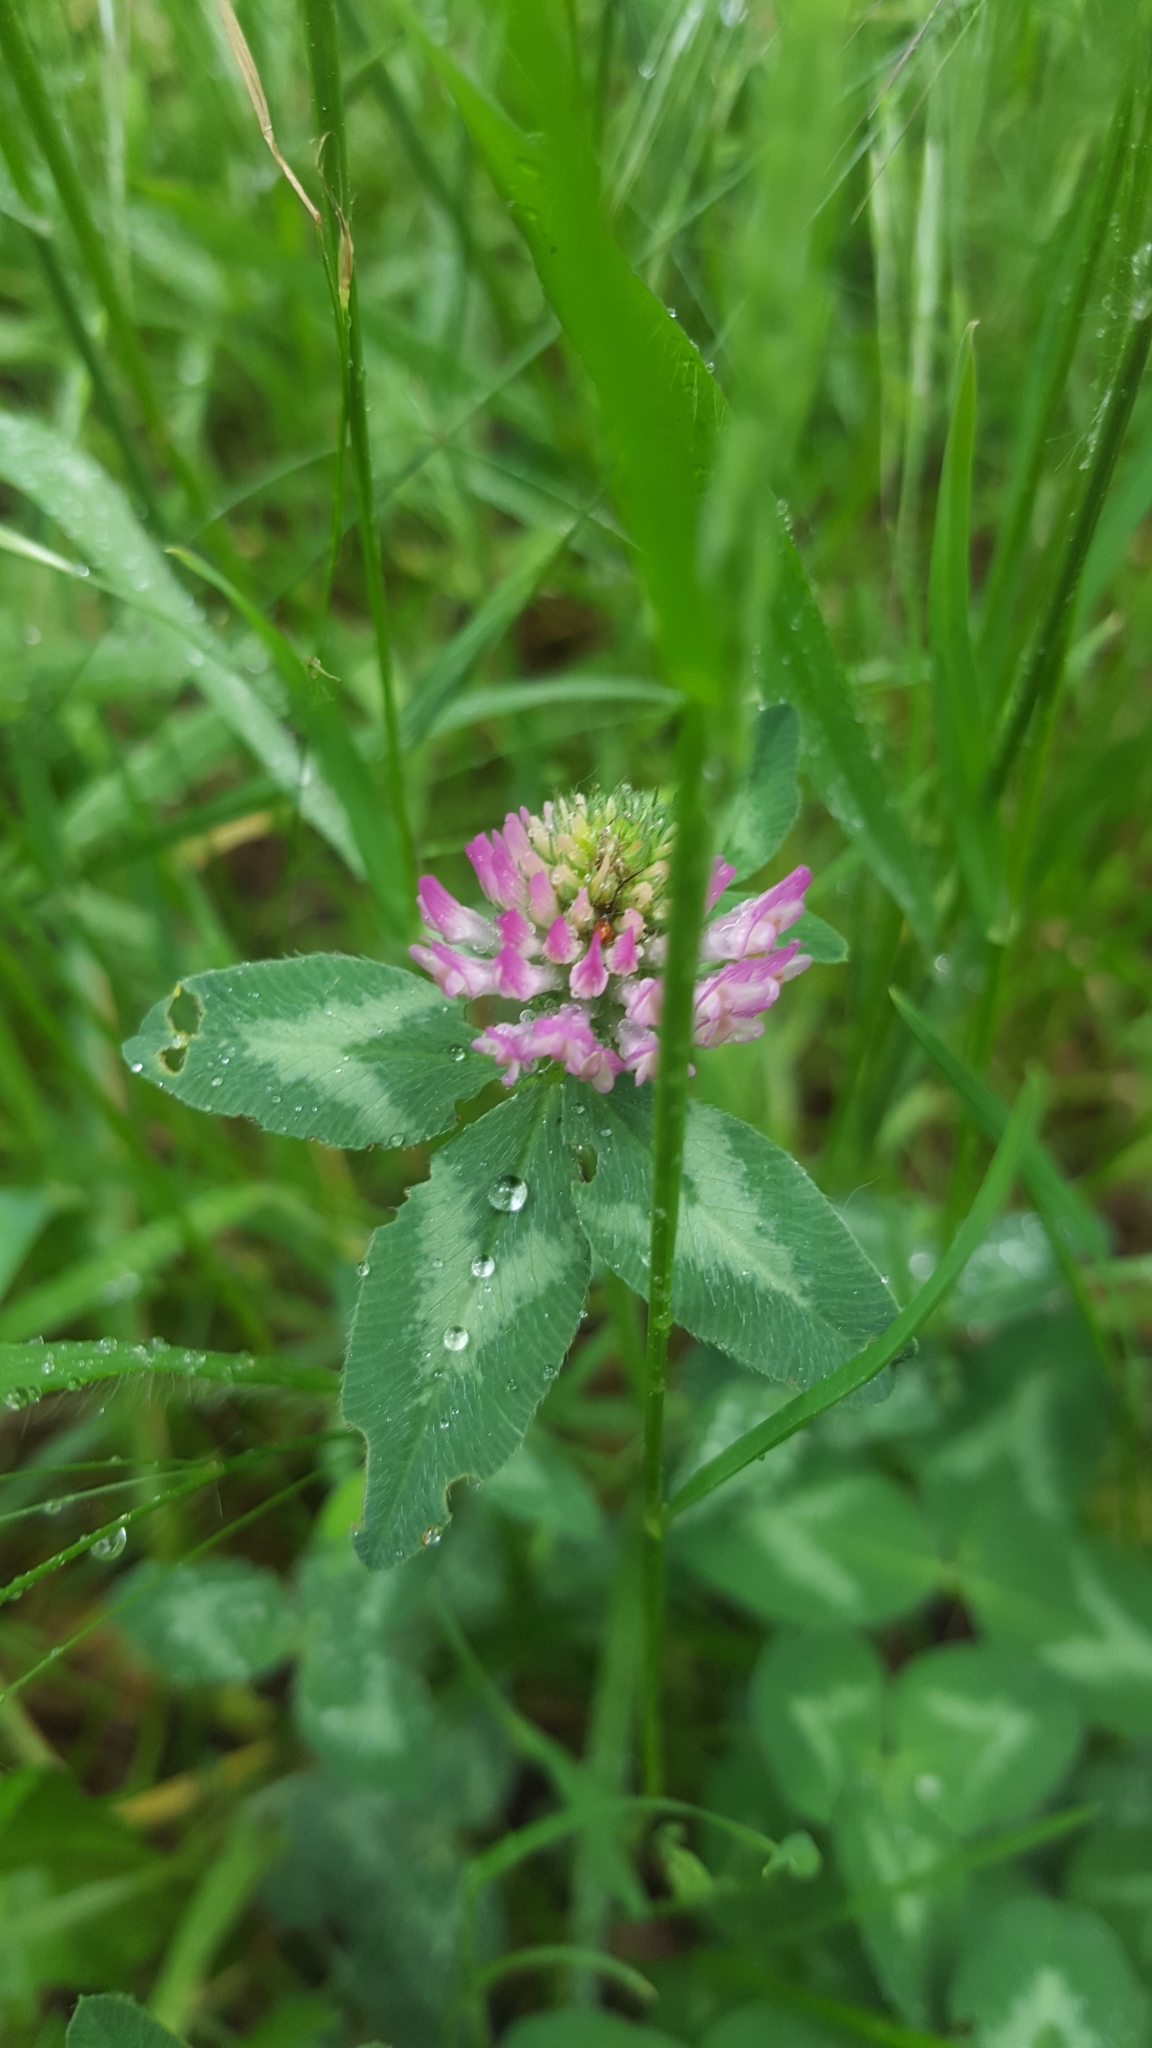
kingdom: Plantae
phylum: Tracheophyta
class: Magnoliopsida
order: Fabales
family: Fabaceae
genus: Trifolium
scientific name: Trifolium pratense
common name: Red clover
